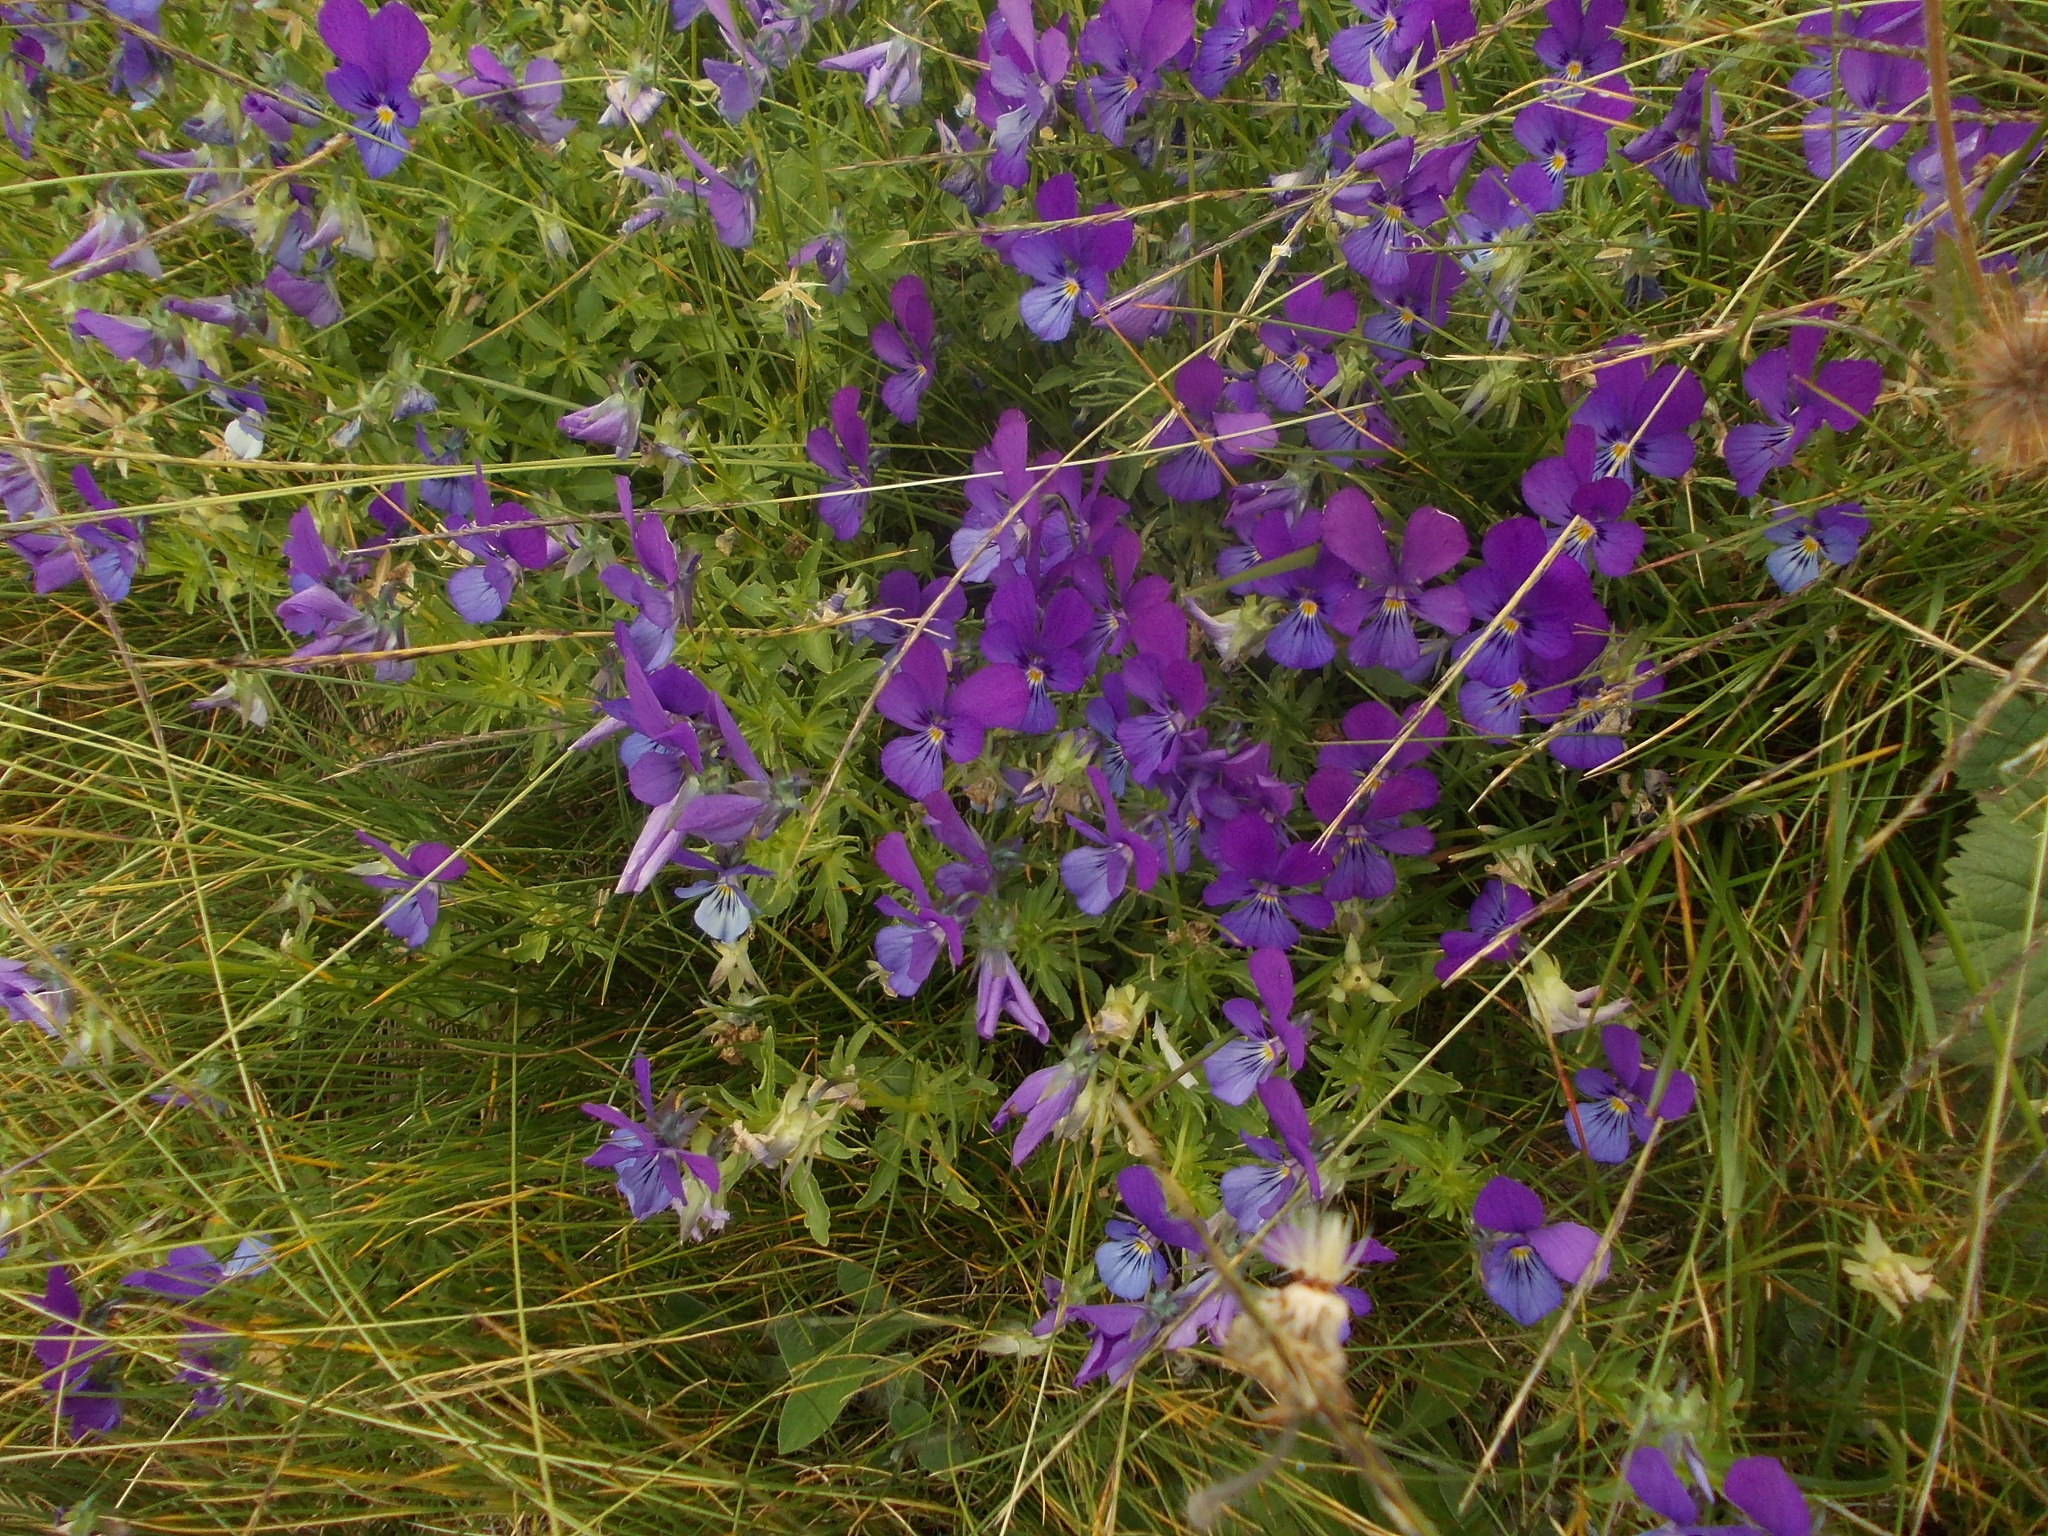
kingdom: Plantae
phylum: Tracheophyta
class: Magnoliopsida
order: Malpighiales
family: Violaceae
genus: Viola
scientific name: Viola dacica
